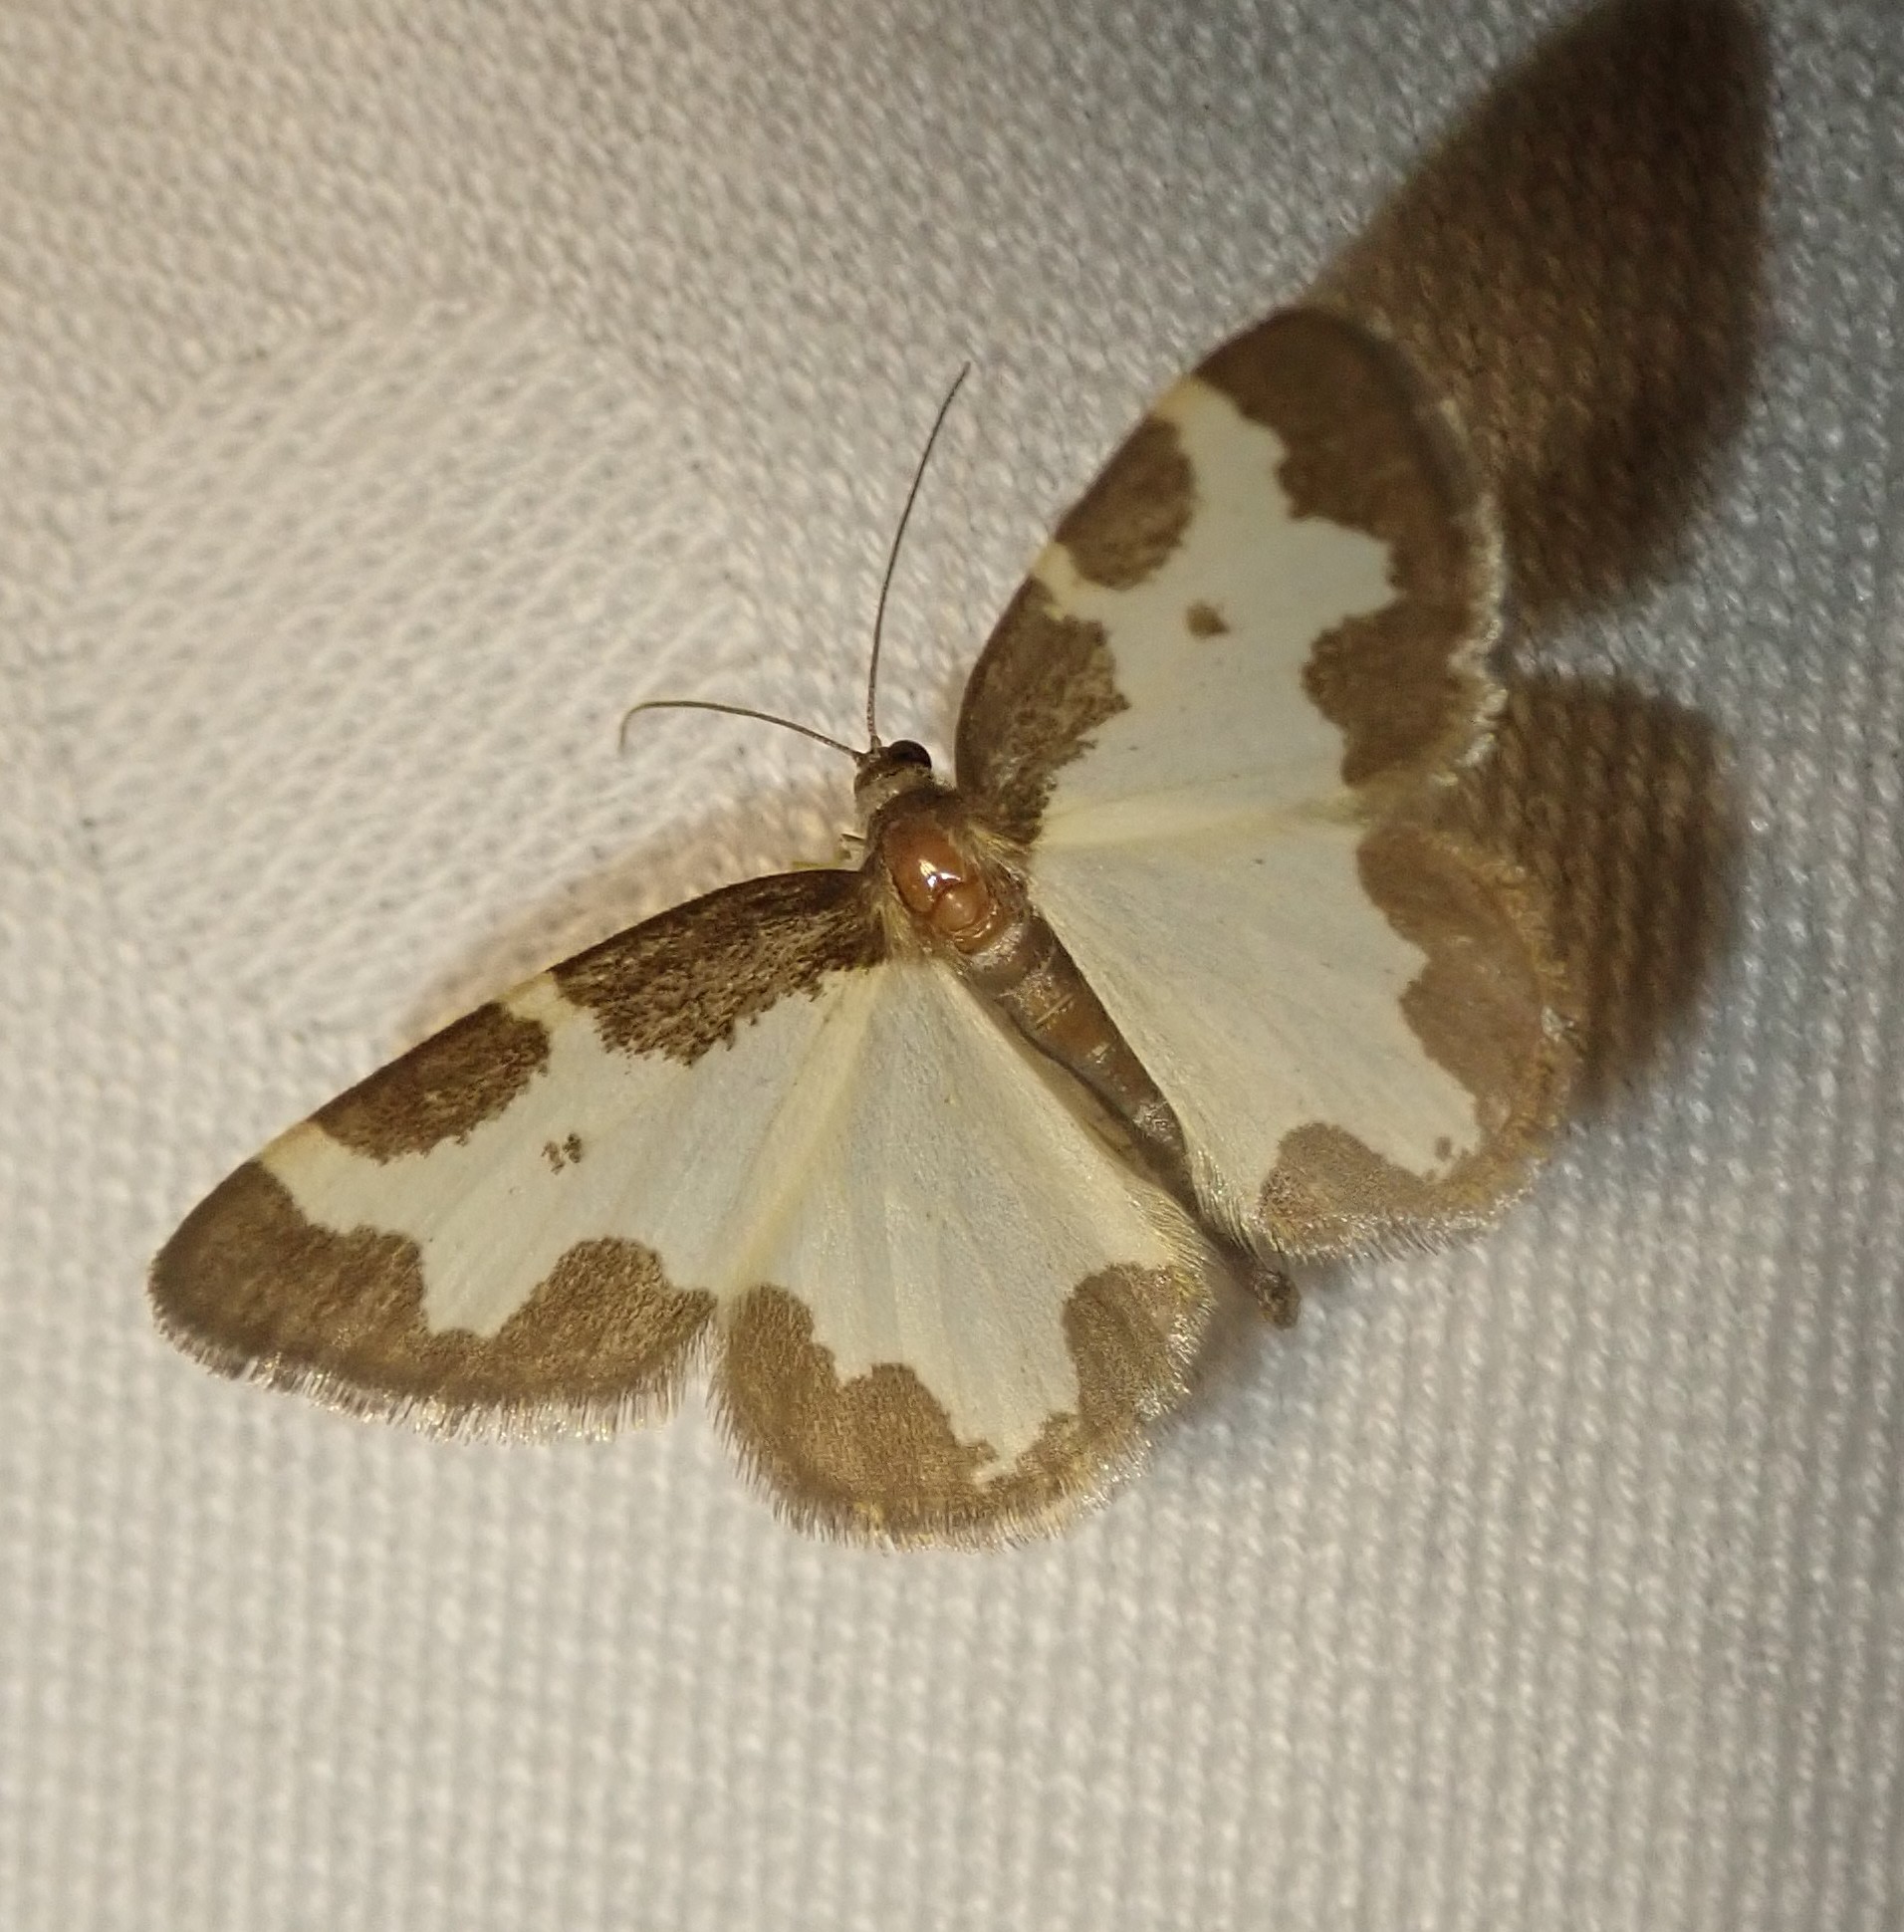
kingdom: Animalia
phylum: Arthropoda
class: Insecta
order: Lepidoptera
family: Geometridae
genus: Lomaspilis
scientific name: Lomaspilis marginata
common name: Clouded border
